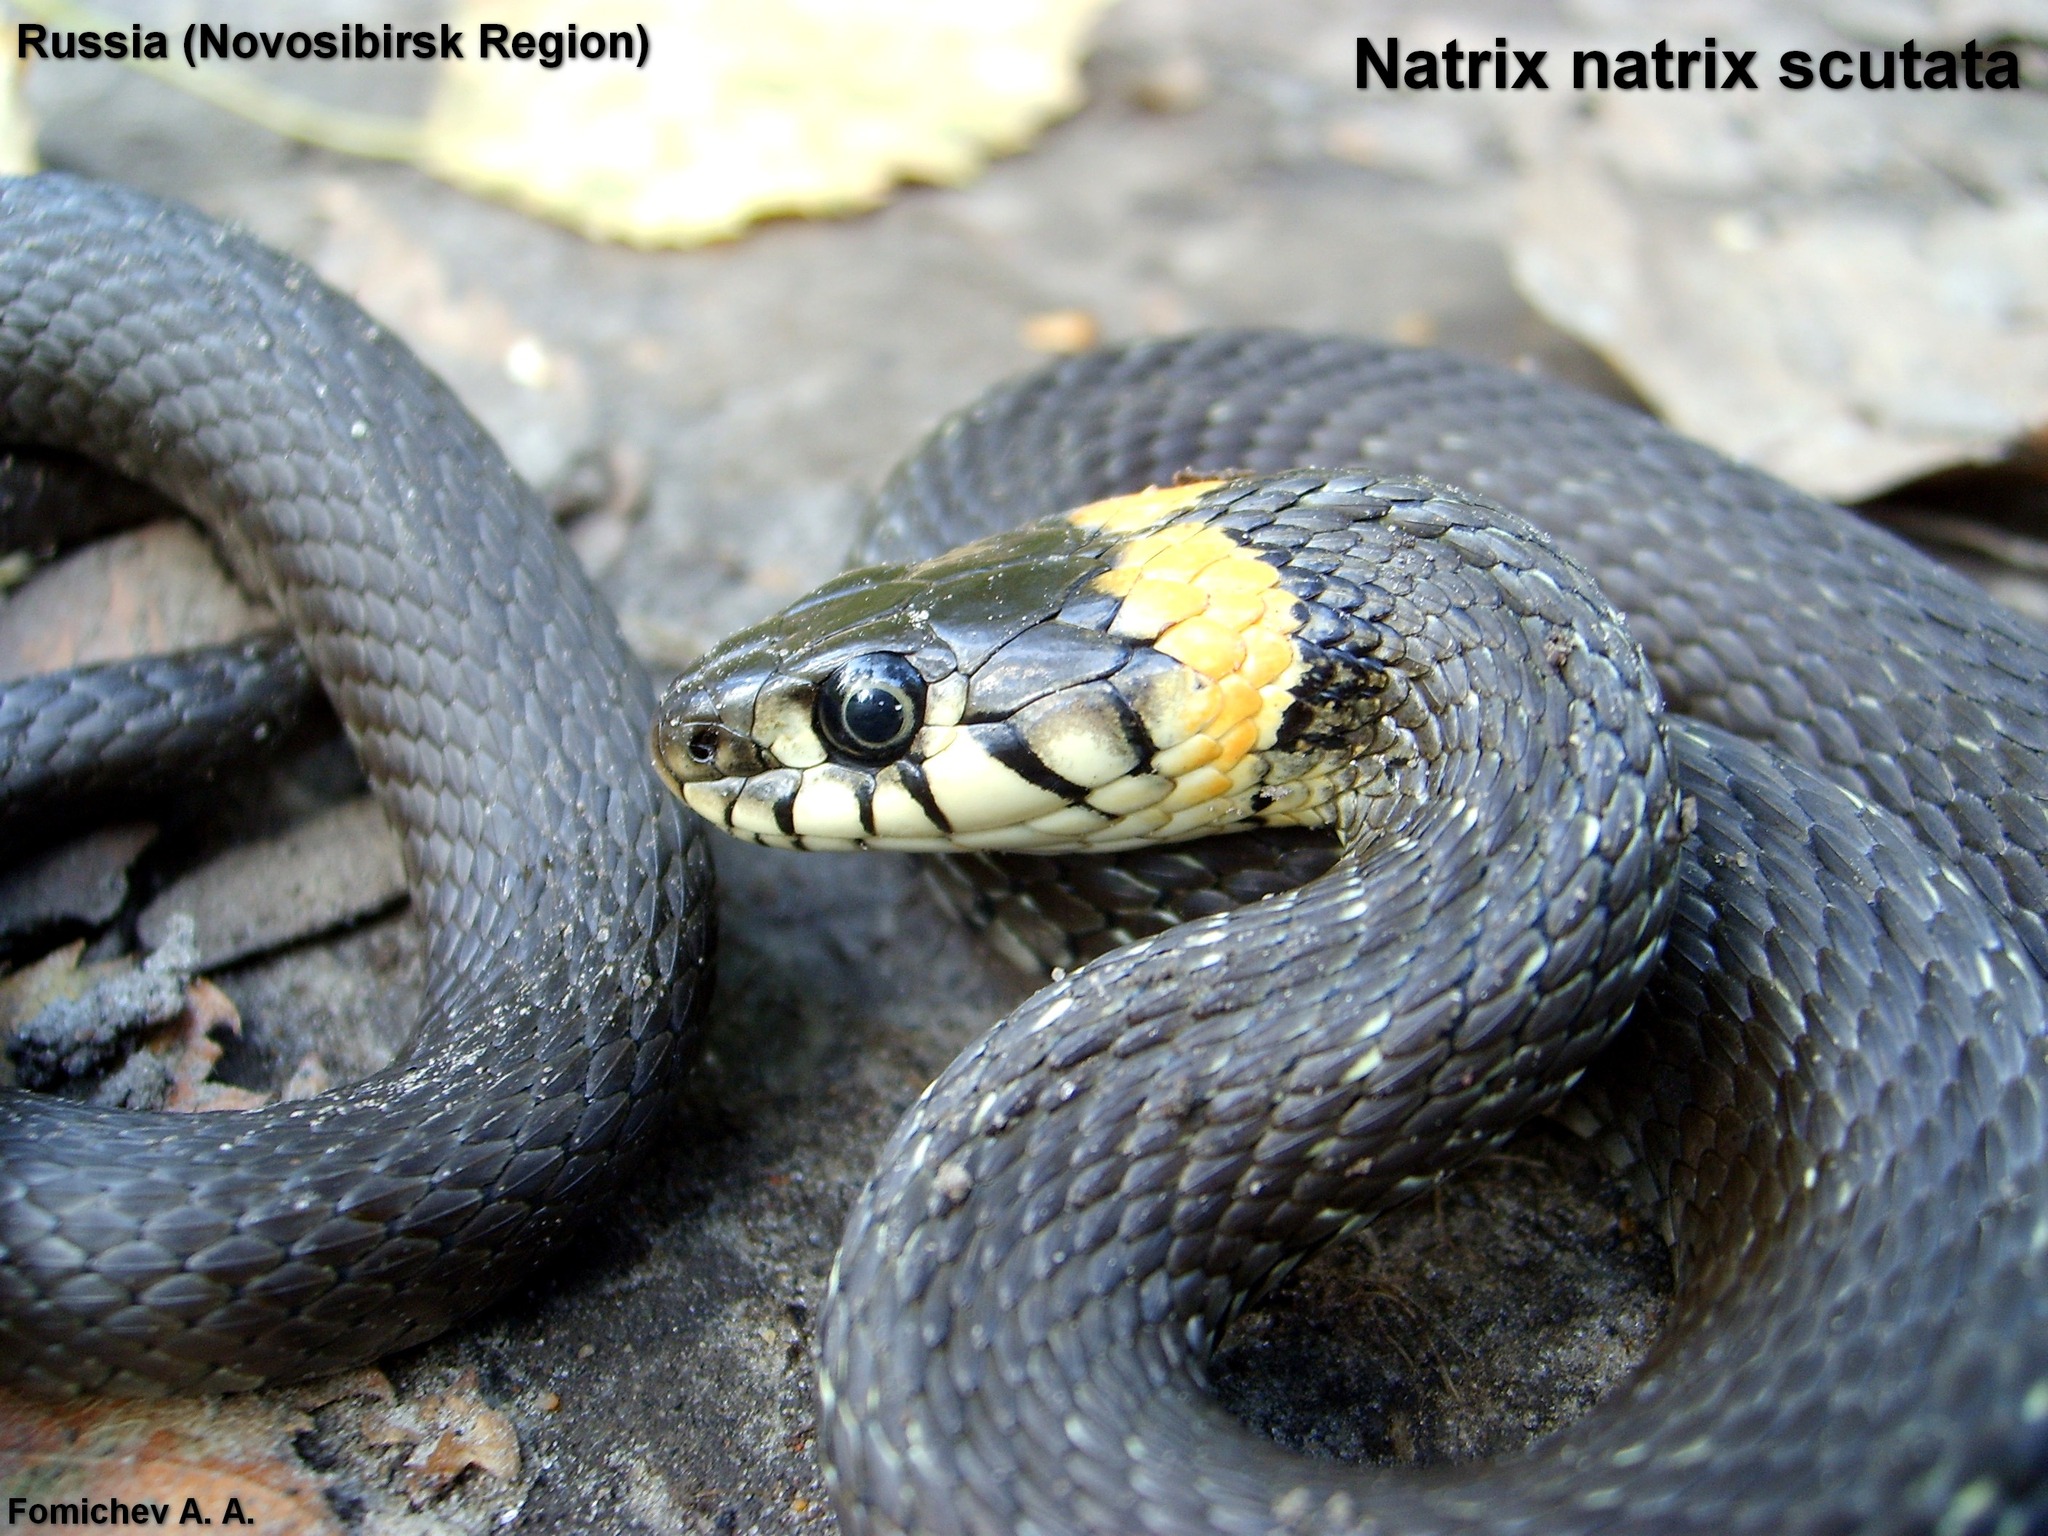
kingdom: Animalia
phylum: Chordata
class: Squamata
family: Colubridae
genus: Natrix
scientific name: Natrix natrix
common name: Grass snake
